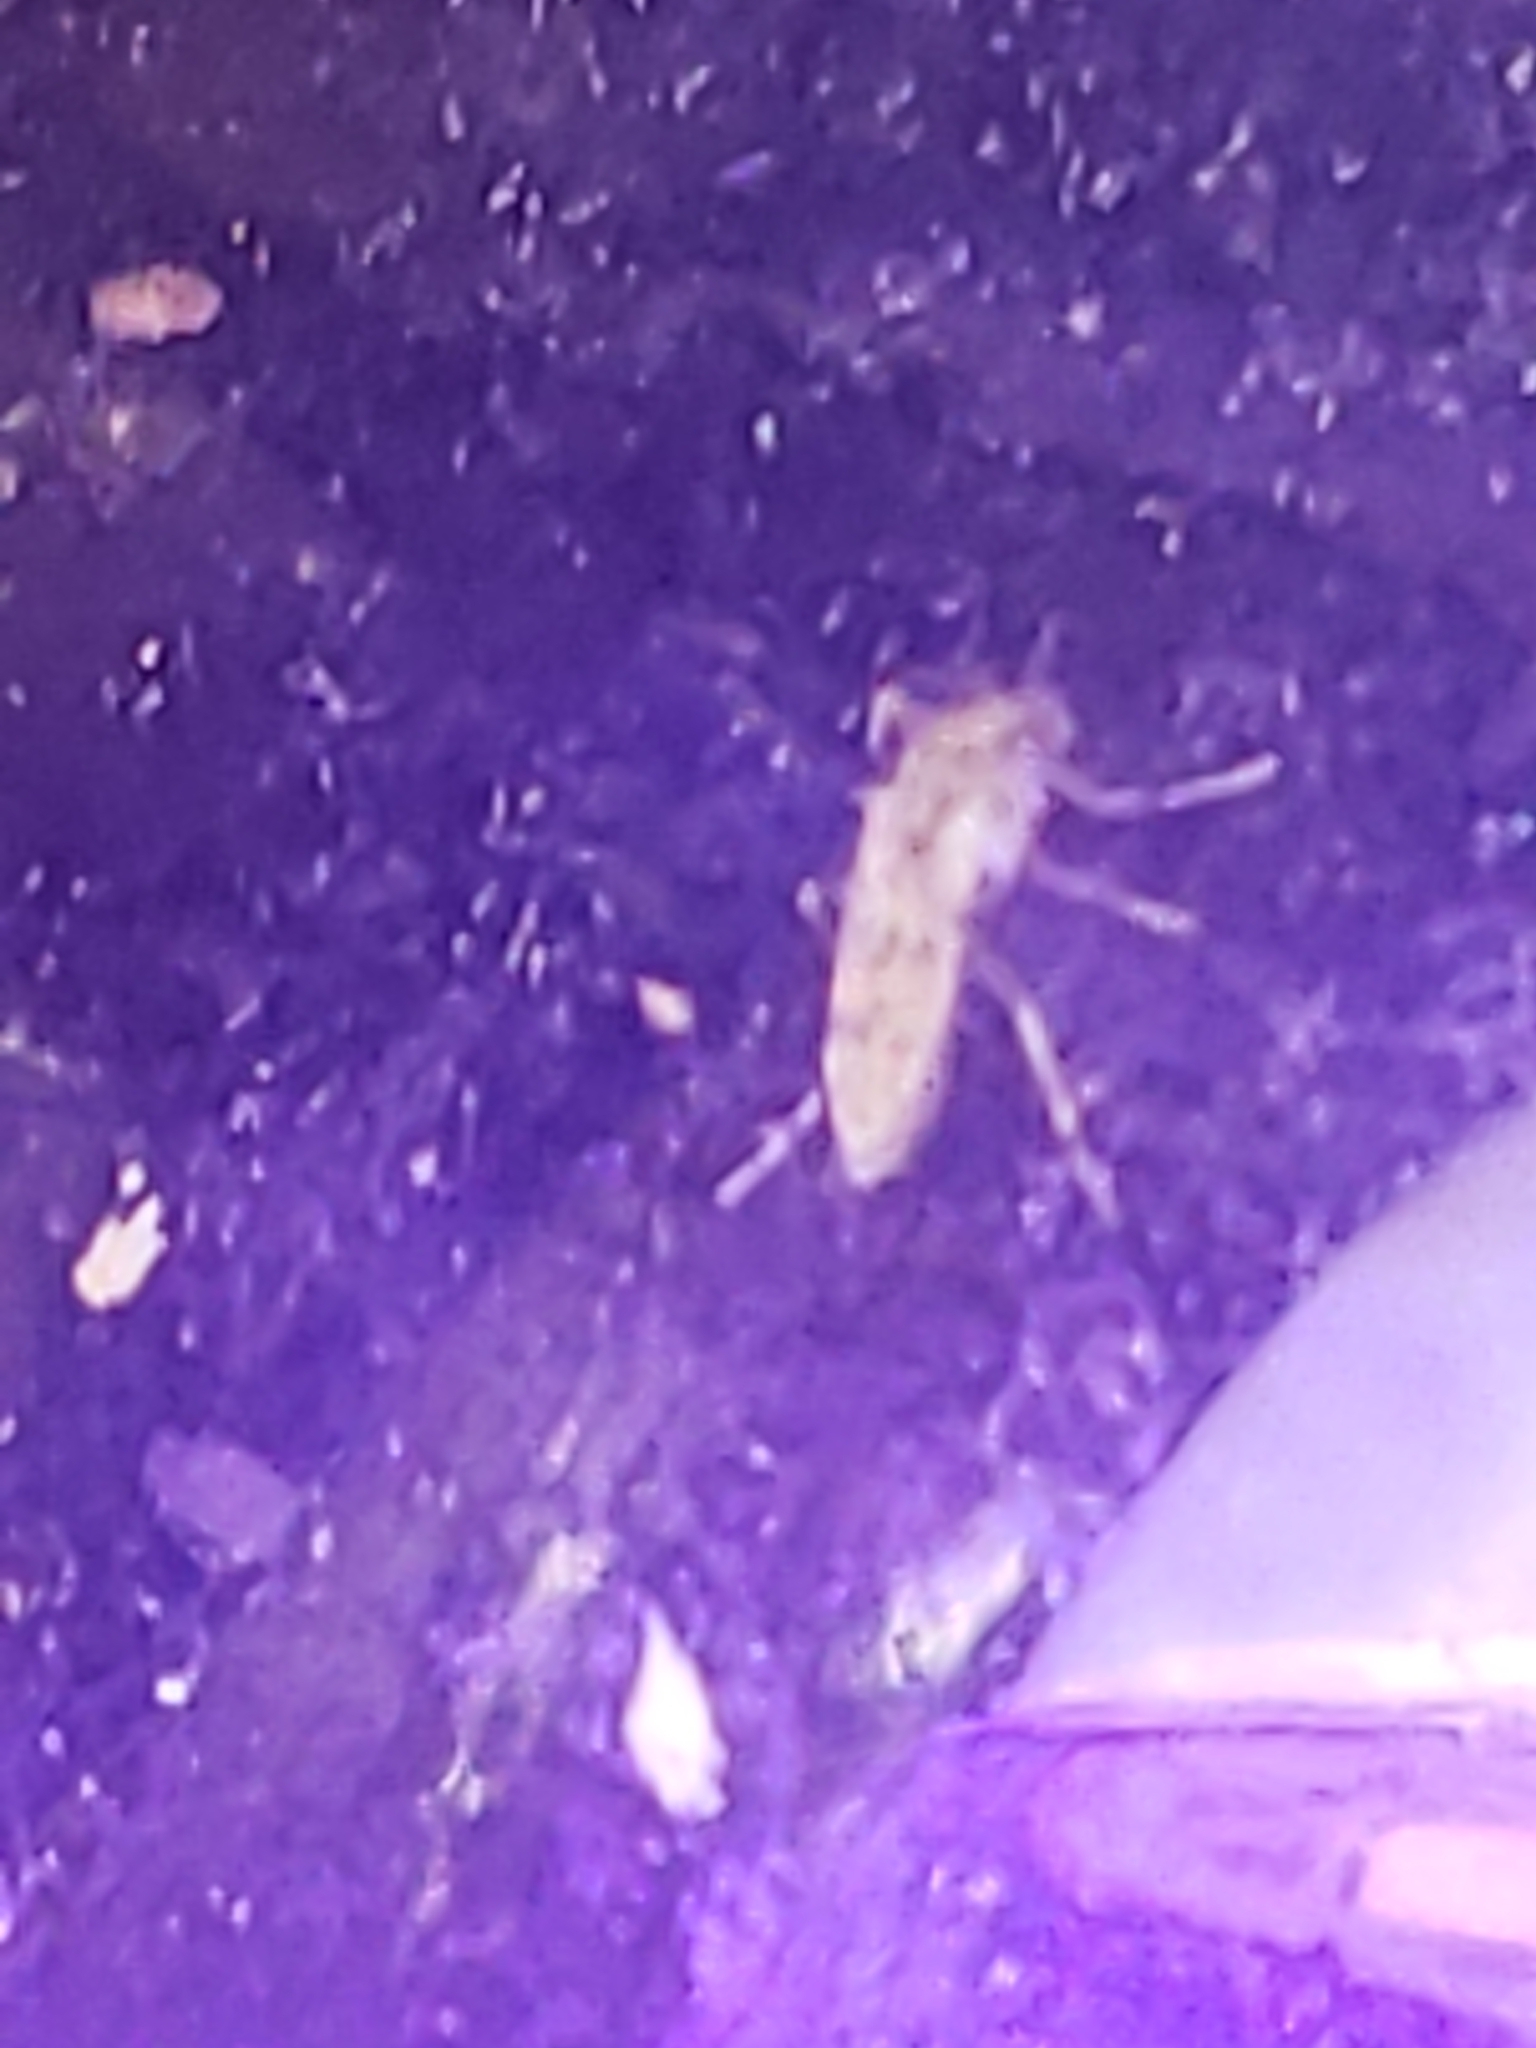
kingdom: Animalia
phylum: Arthropoda
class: Insecta
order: Diptera
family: Chaoboridae
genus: Chaoborus
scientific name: Chaoborus punctipennis
